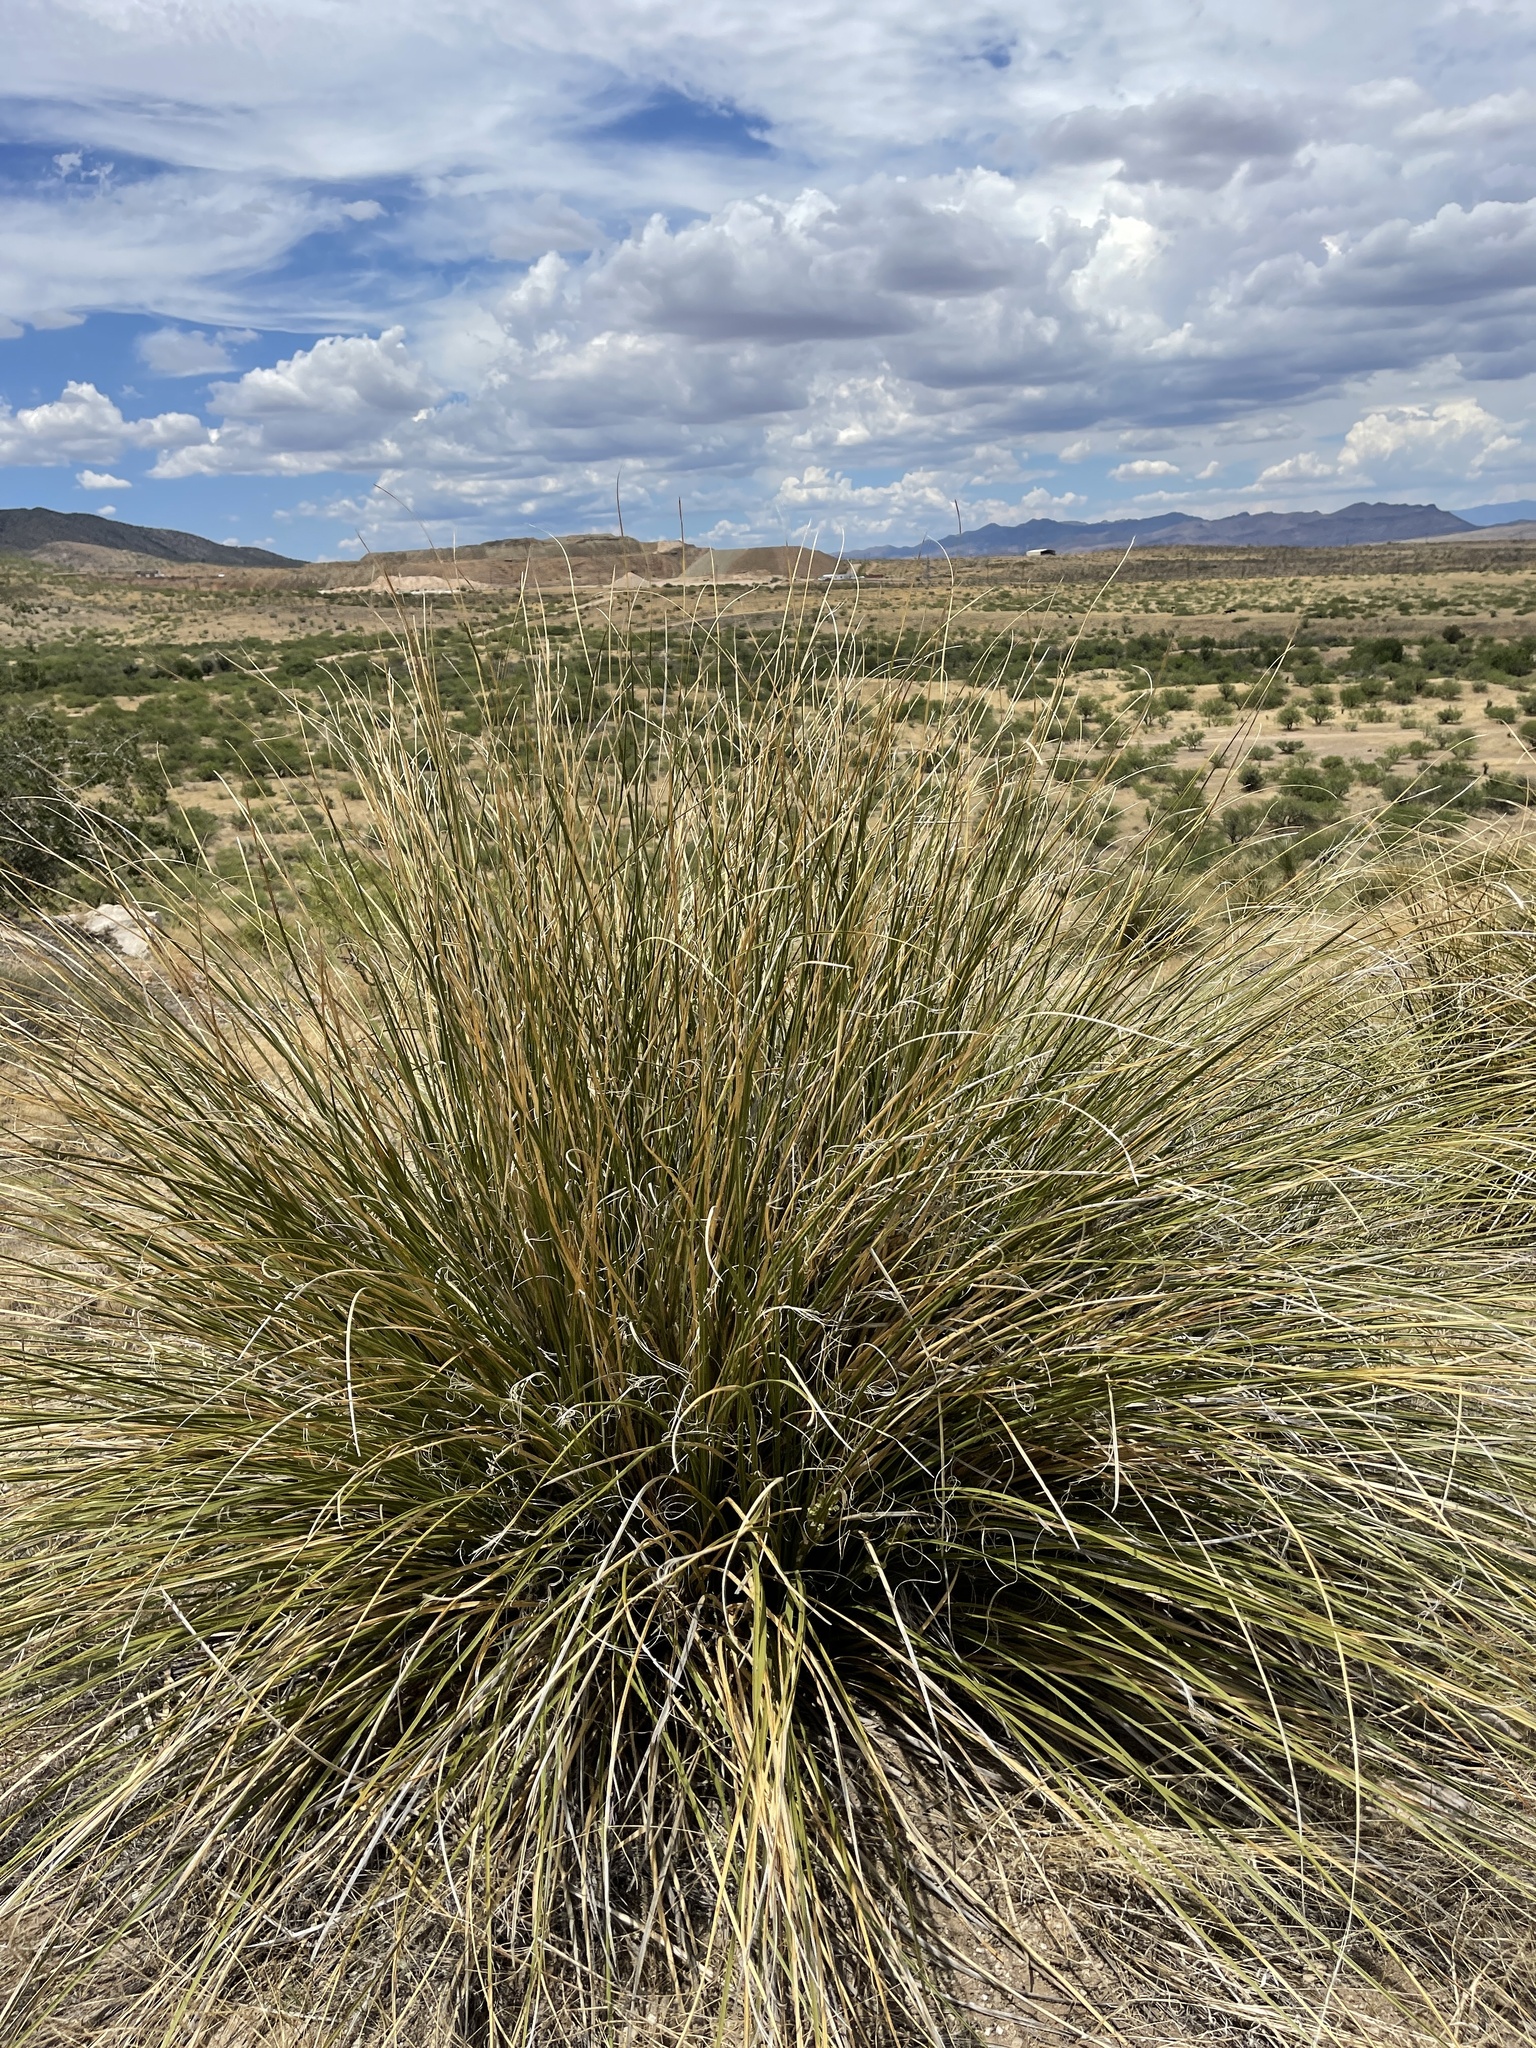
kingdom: Plantae
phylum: Tracheophyta
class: Liliopsida
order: Asparagales
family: Asparagaceae
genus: Nolina
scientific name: Nolina microcarpa
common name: Bear-grass
